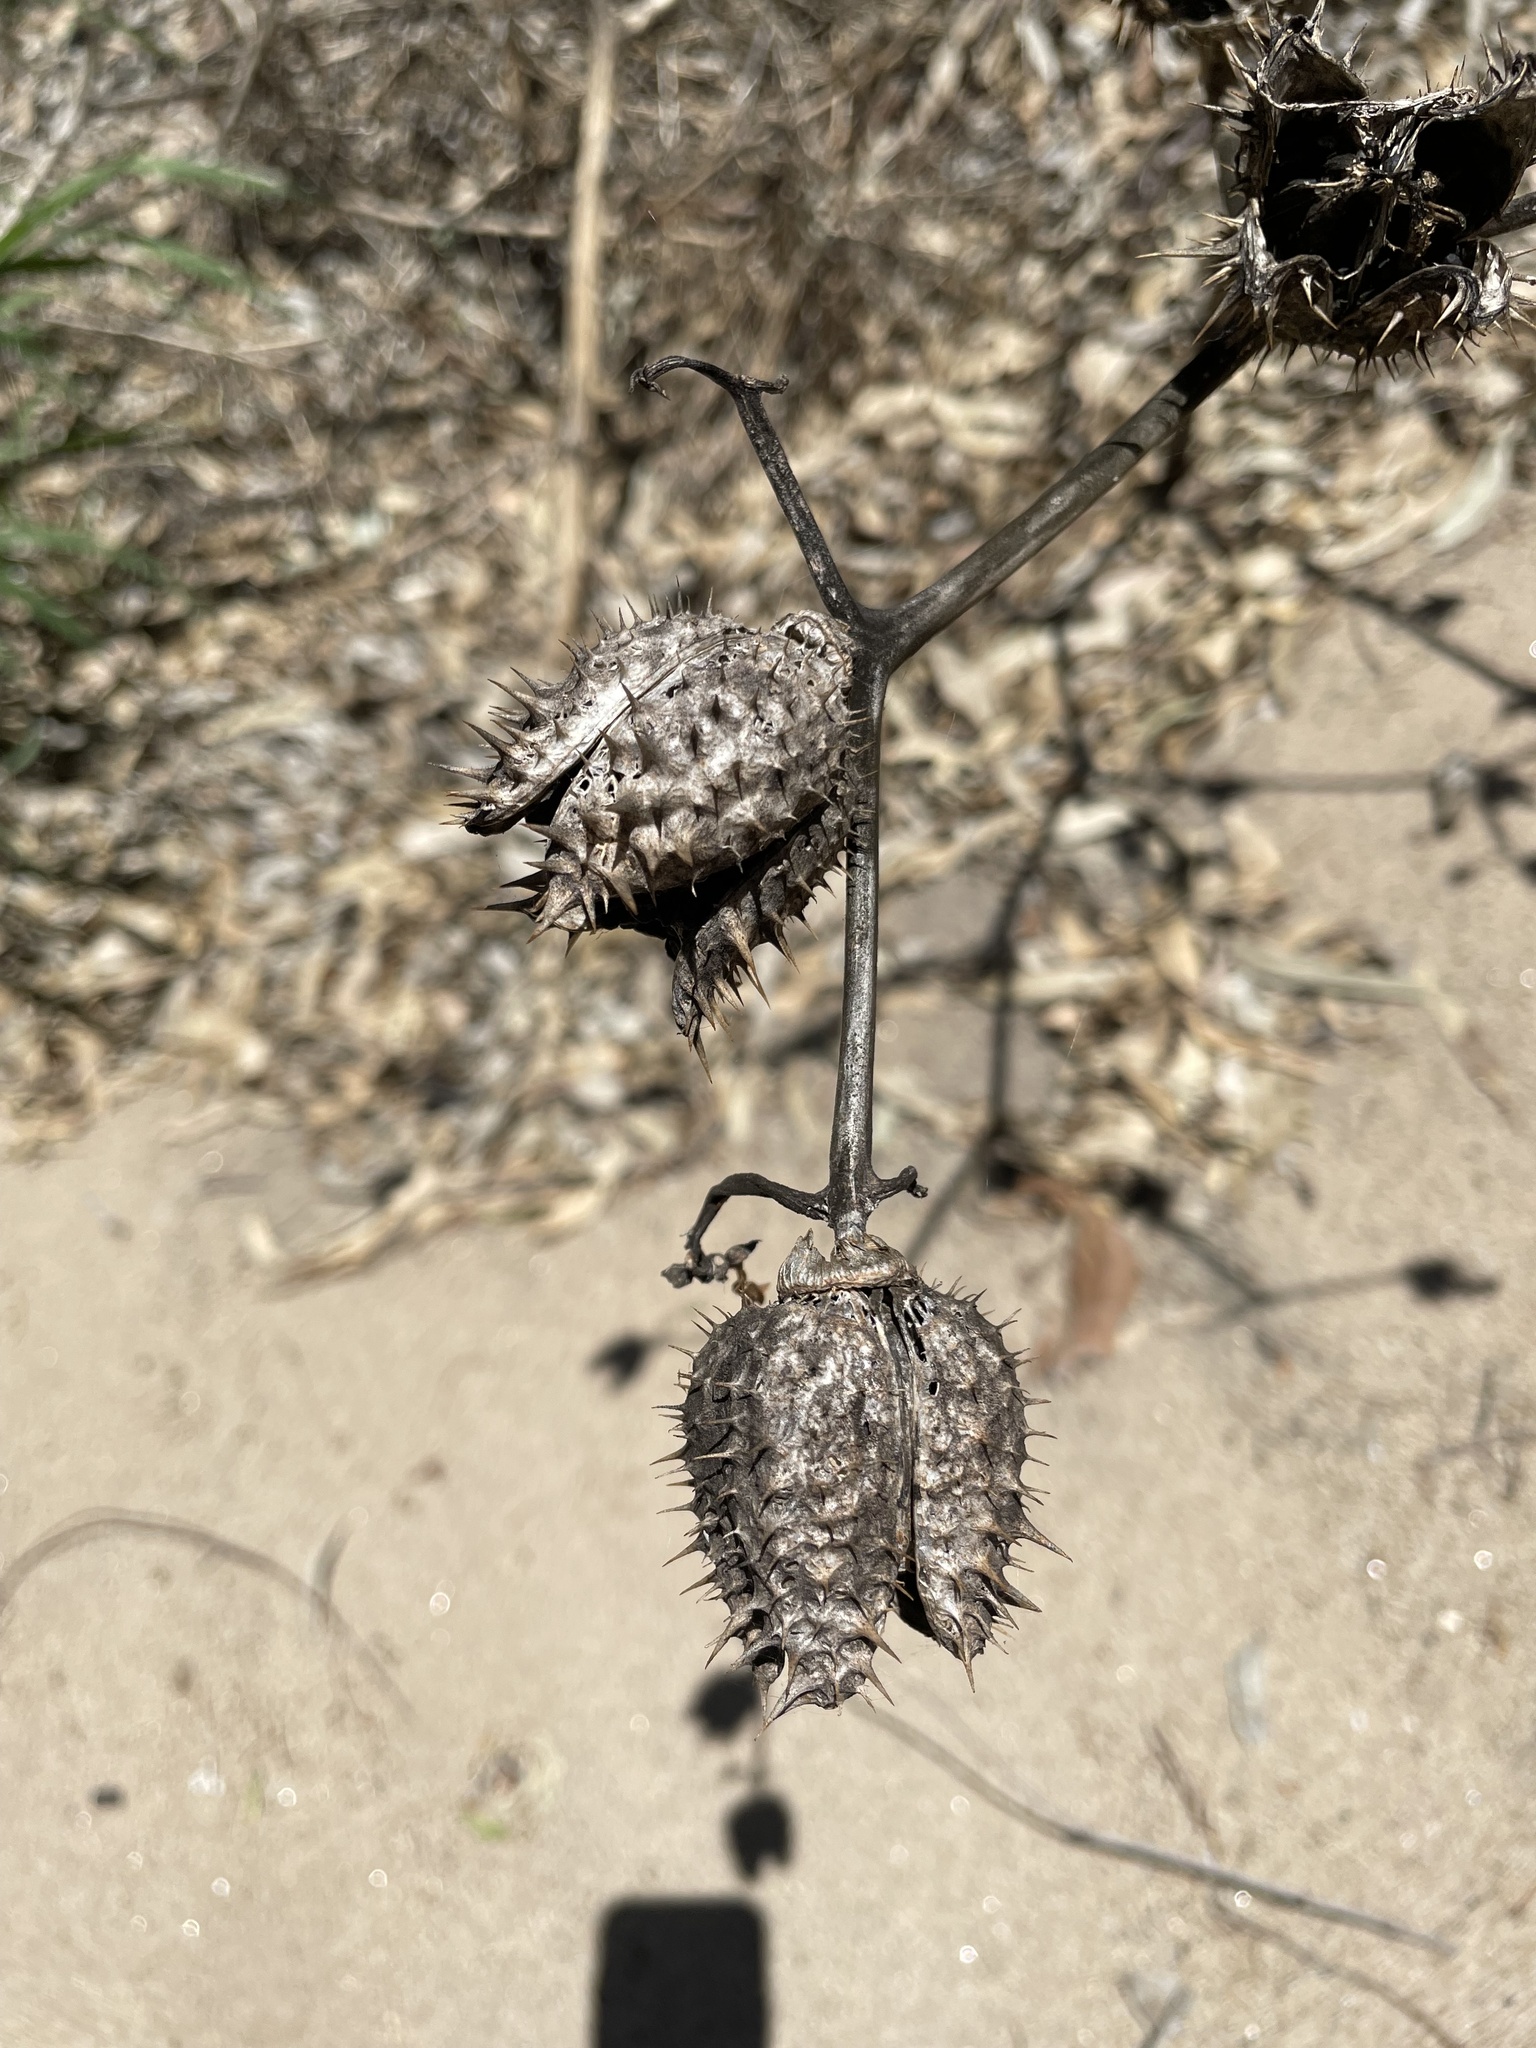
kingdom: Plantae
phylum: Tracheophyta
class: Magnoliopsida
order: Solanales
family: Solanaceae
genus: Datura
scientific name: Datura stramonium
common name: Thorn-apple
